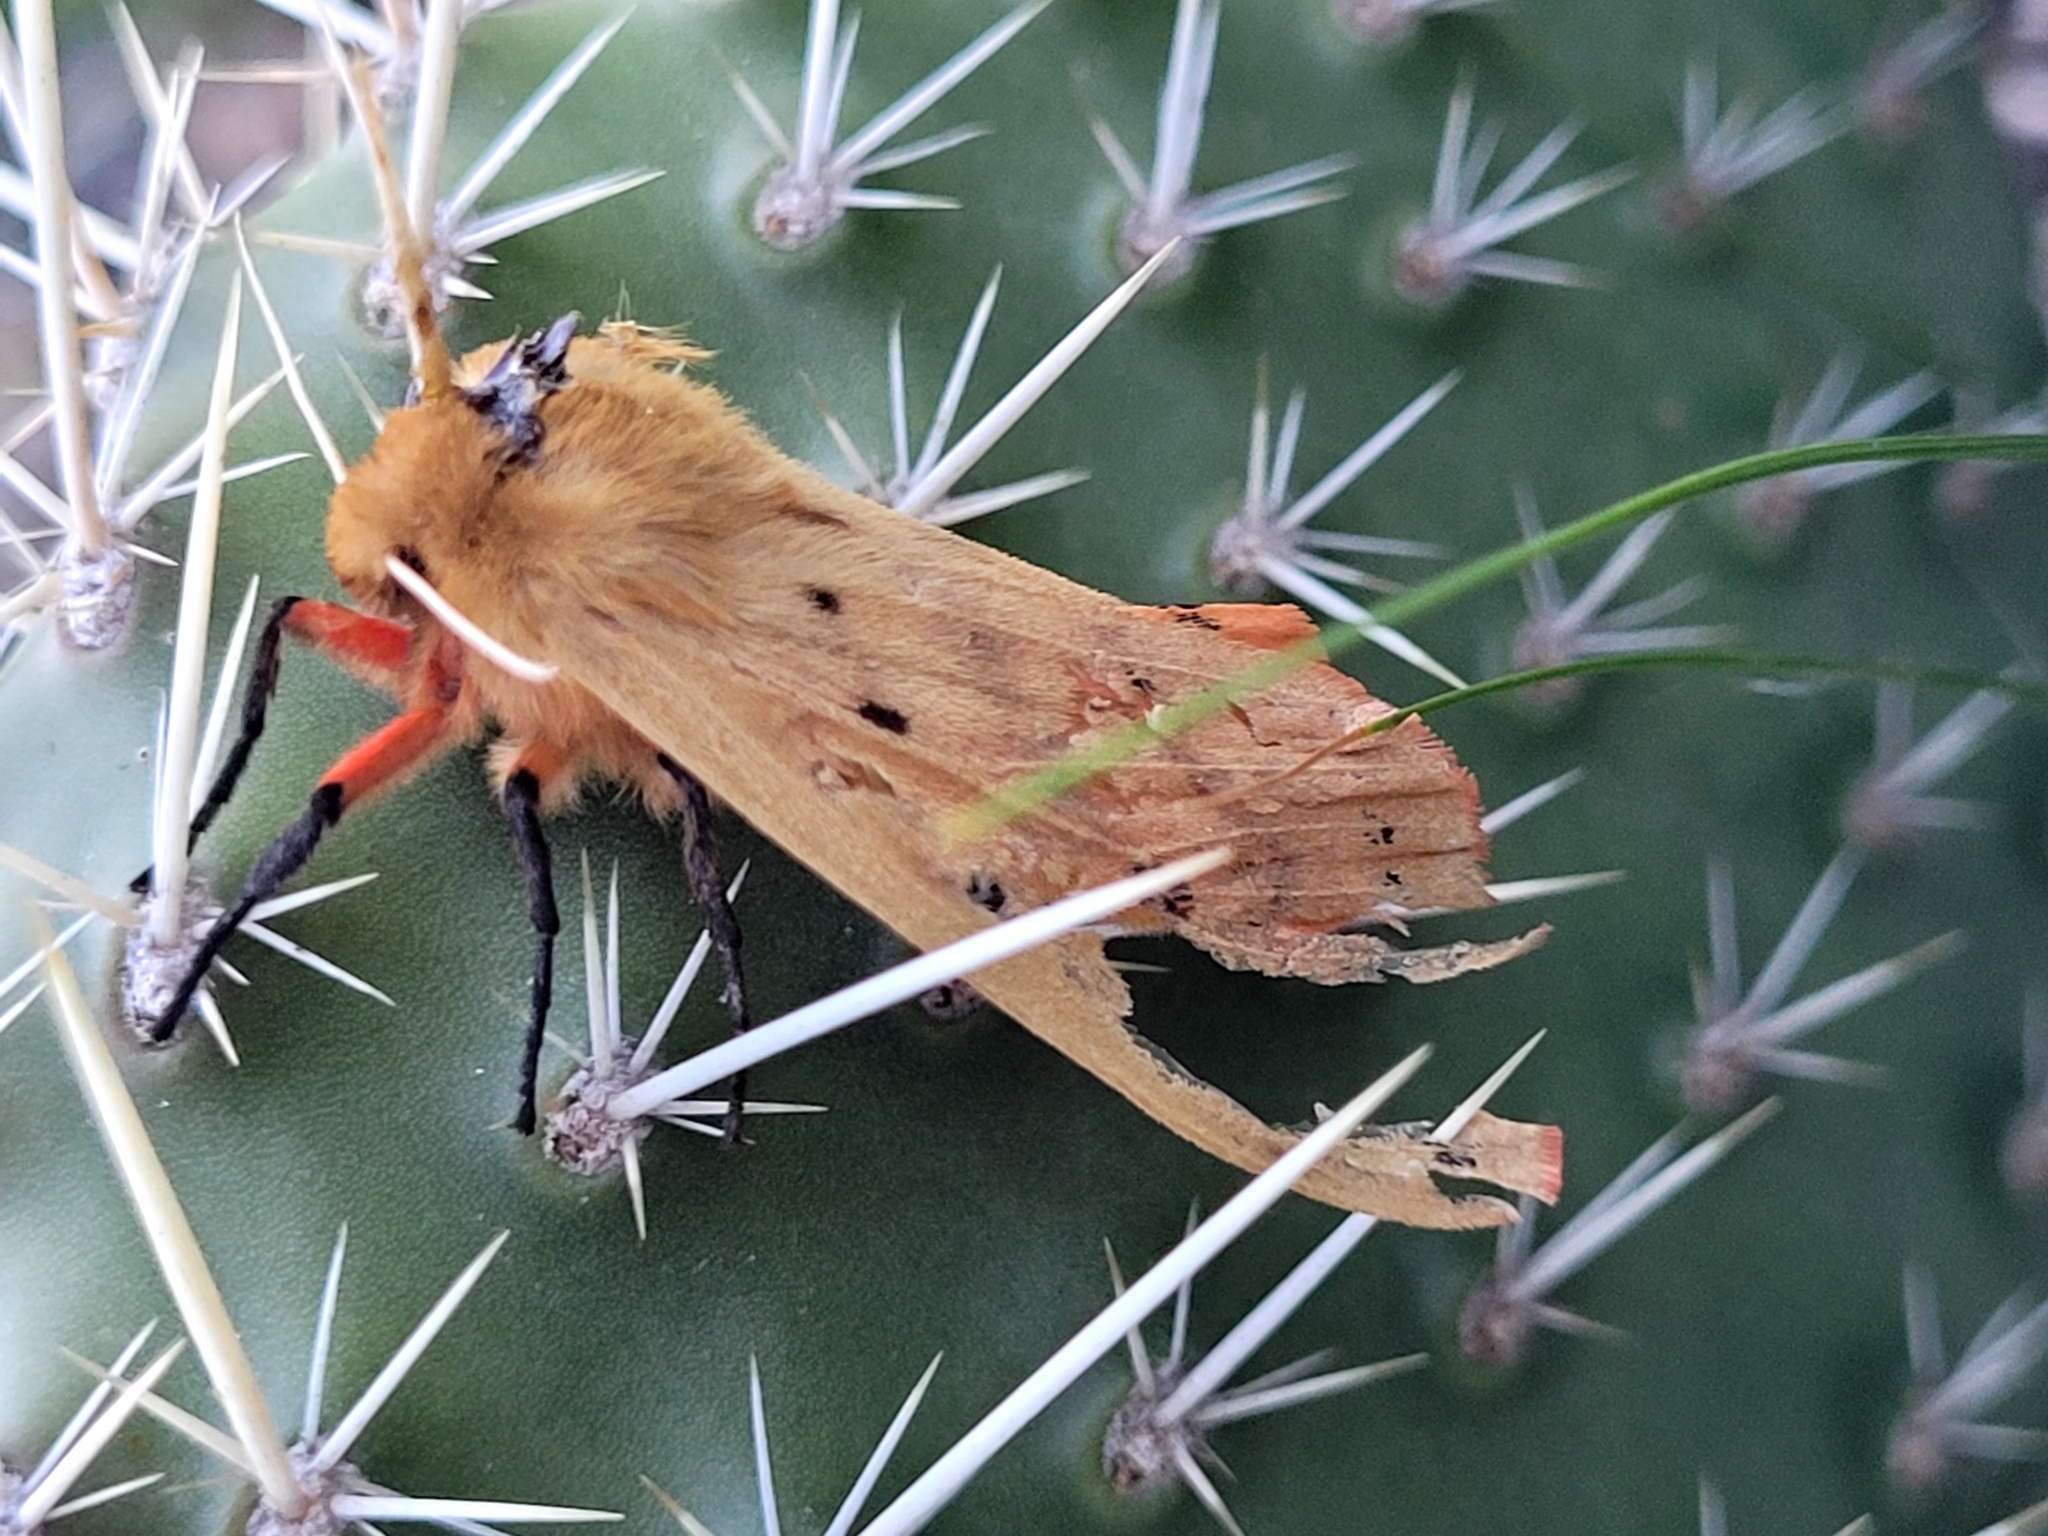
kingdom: Animalia
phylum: Arthropoda
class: Insecta
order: Lepidoptera
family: Erebidae
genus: Pyrrharctia
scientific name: Pyrrharctia isabella
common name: Isabella tiger moth
